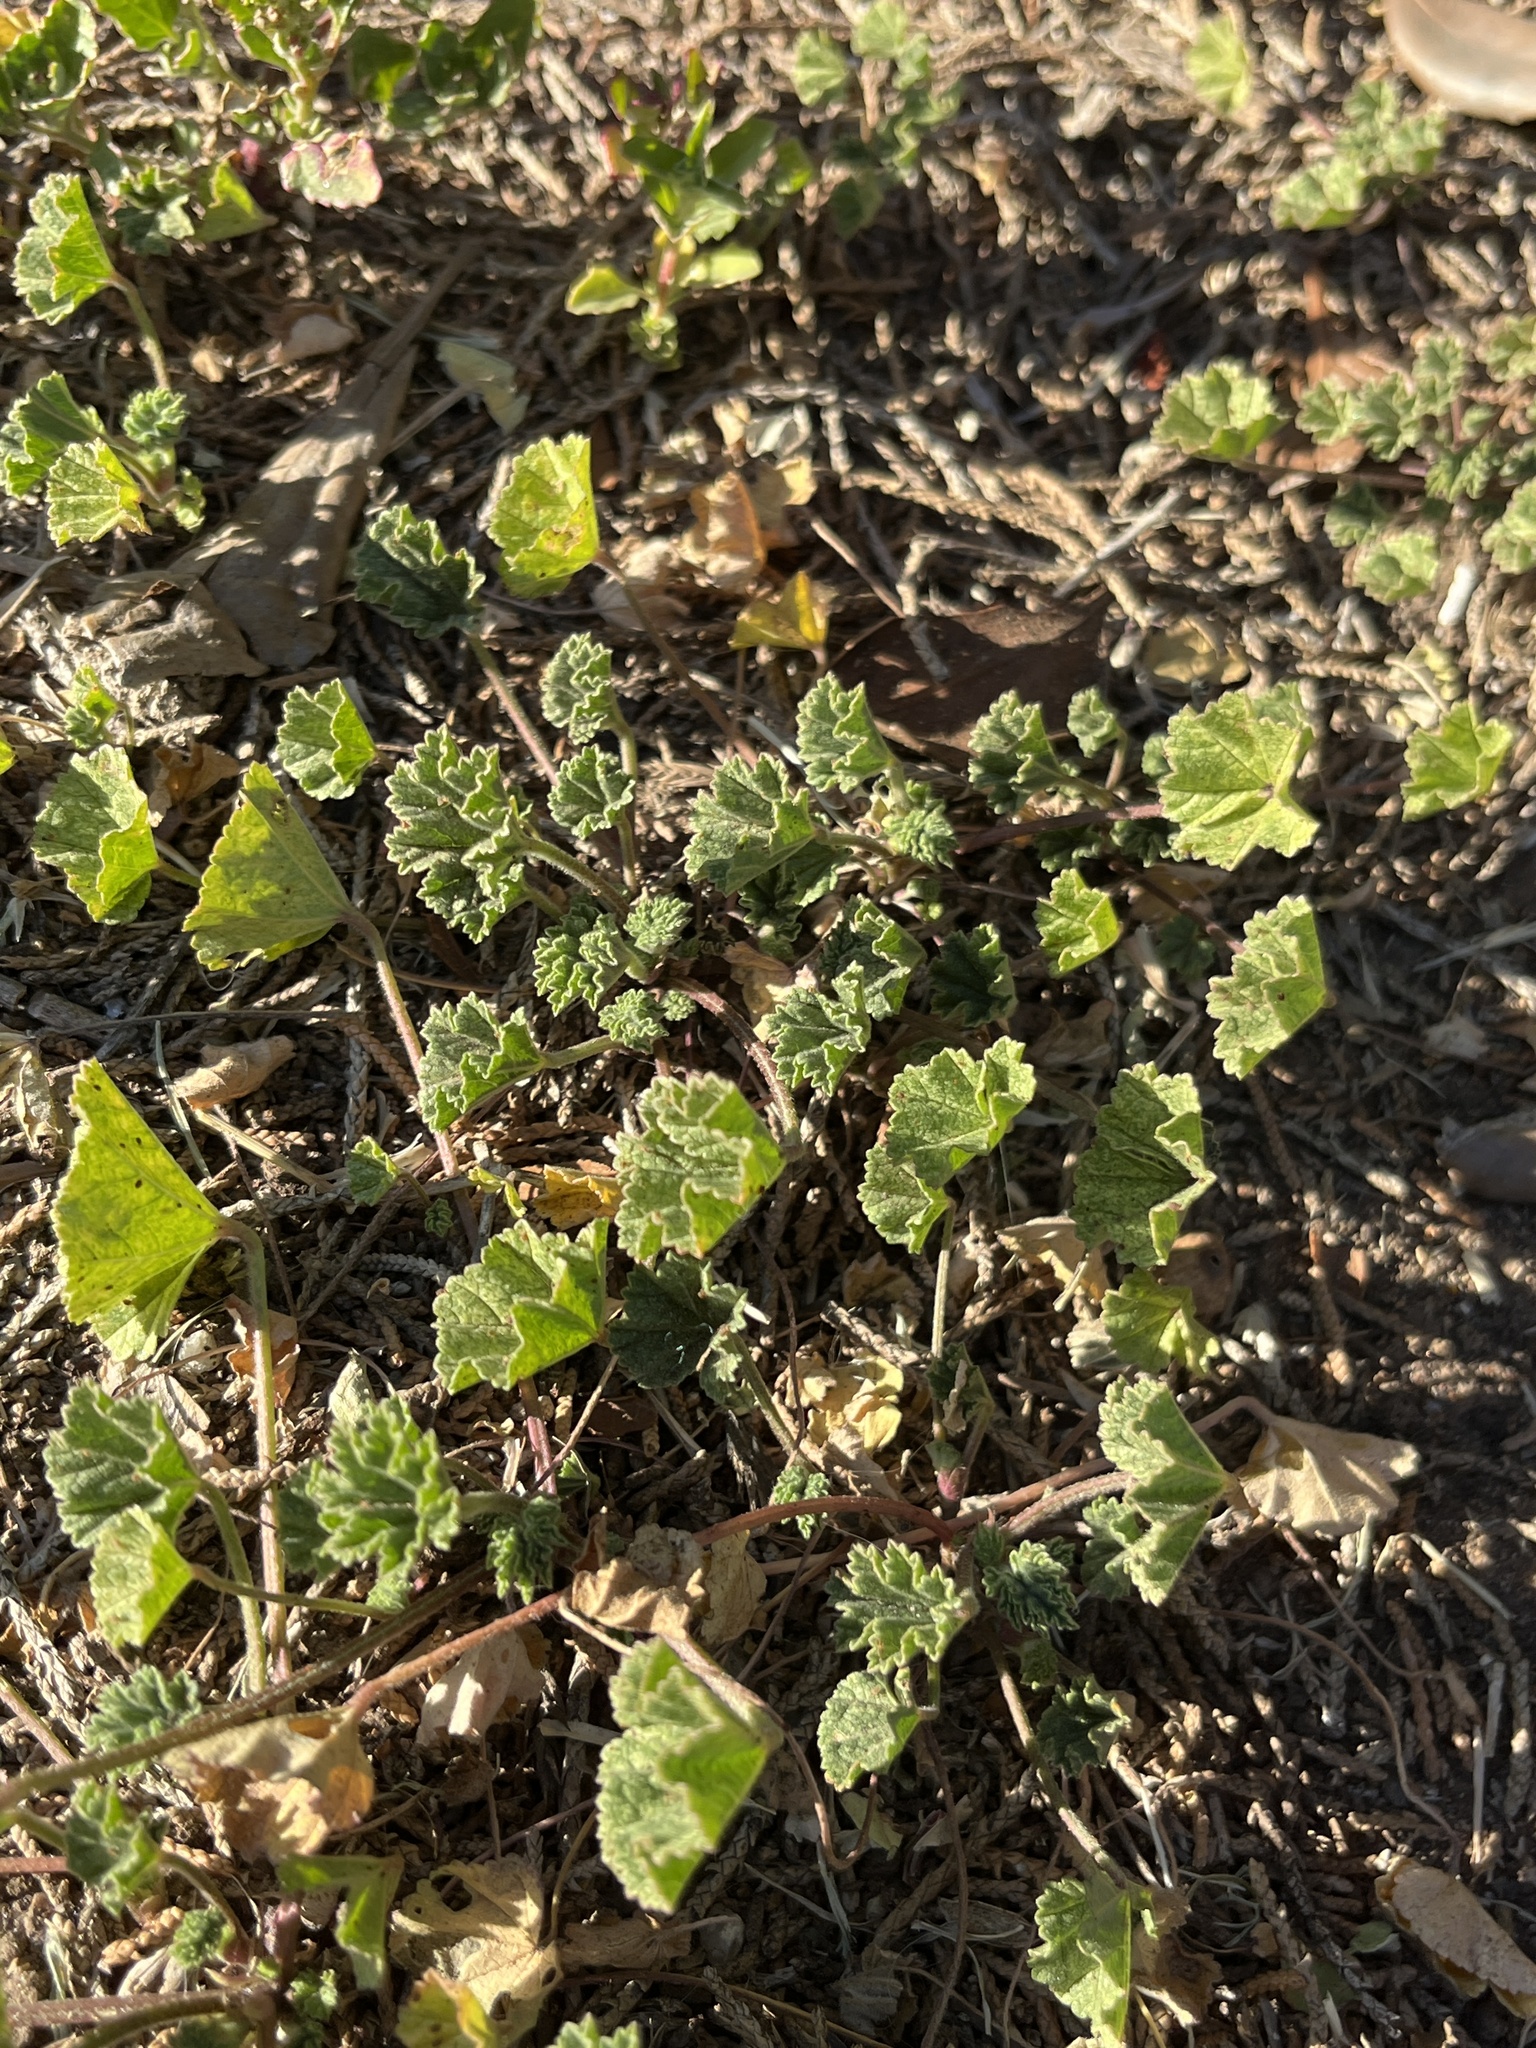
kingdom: Plantae
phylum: Tracheophyta
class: Magnoliopsida
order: Malvales
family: Malvaceae
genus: Malva
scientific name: Malva
